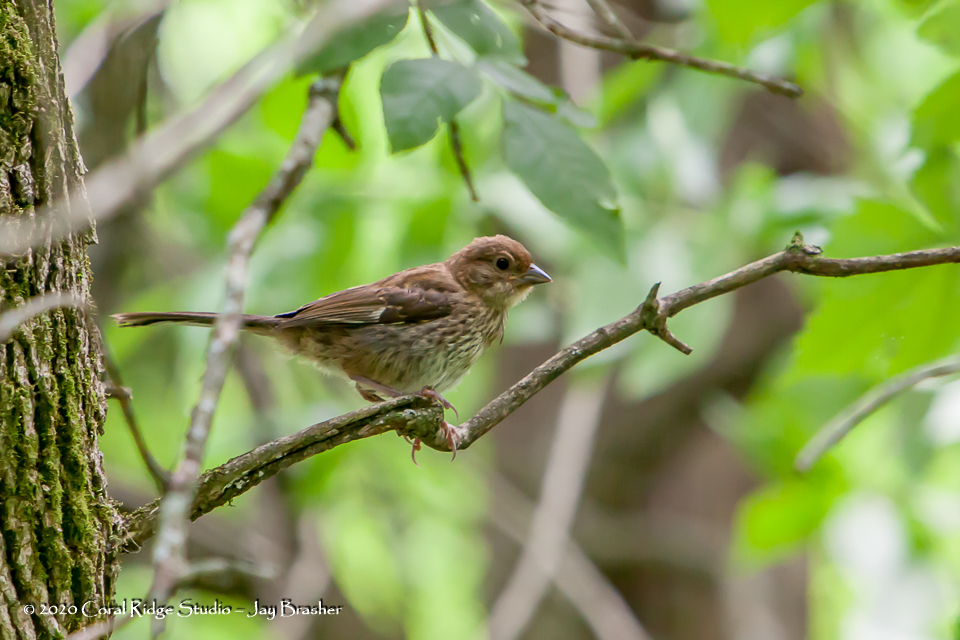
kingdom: Animalia
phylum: Chordata
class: Aves
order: Passeriformes
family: Passerellidae
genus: Pipilo
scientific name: Pipilo erythrophthalmus
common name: Eastern towhee
